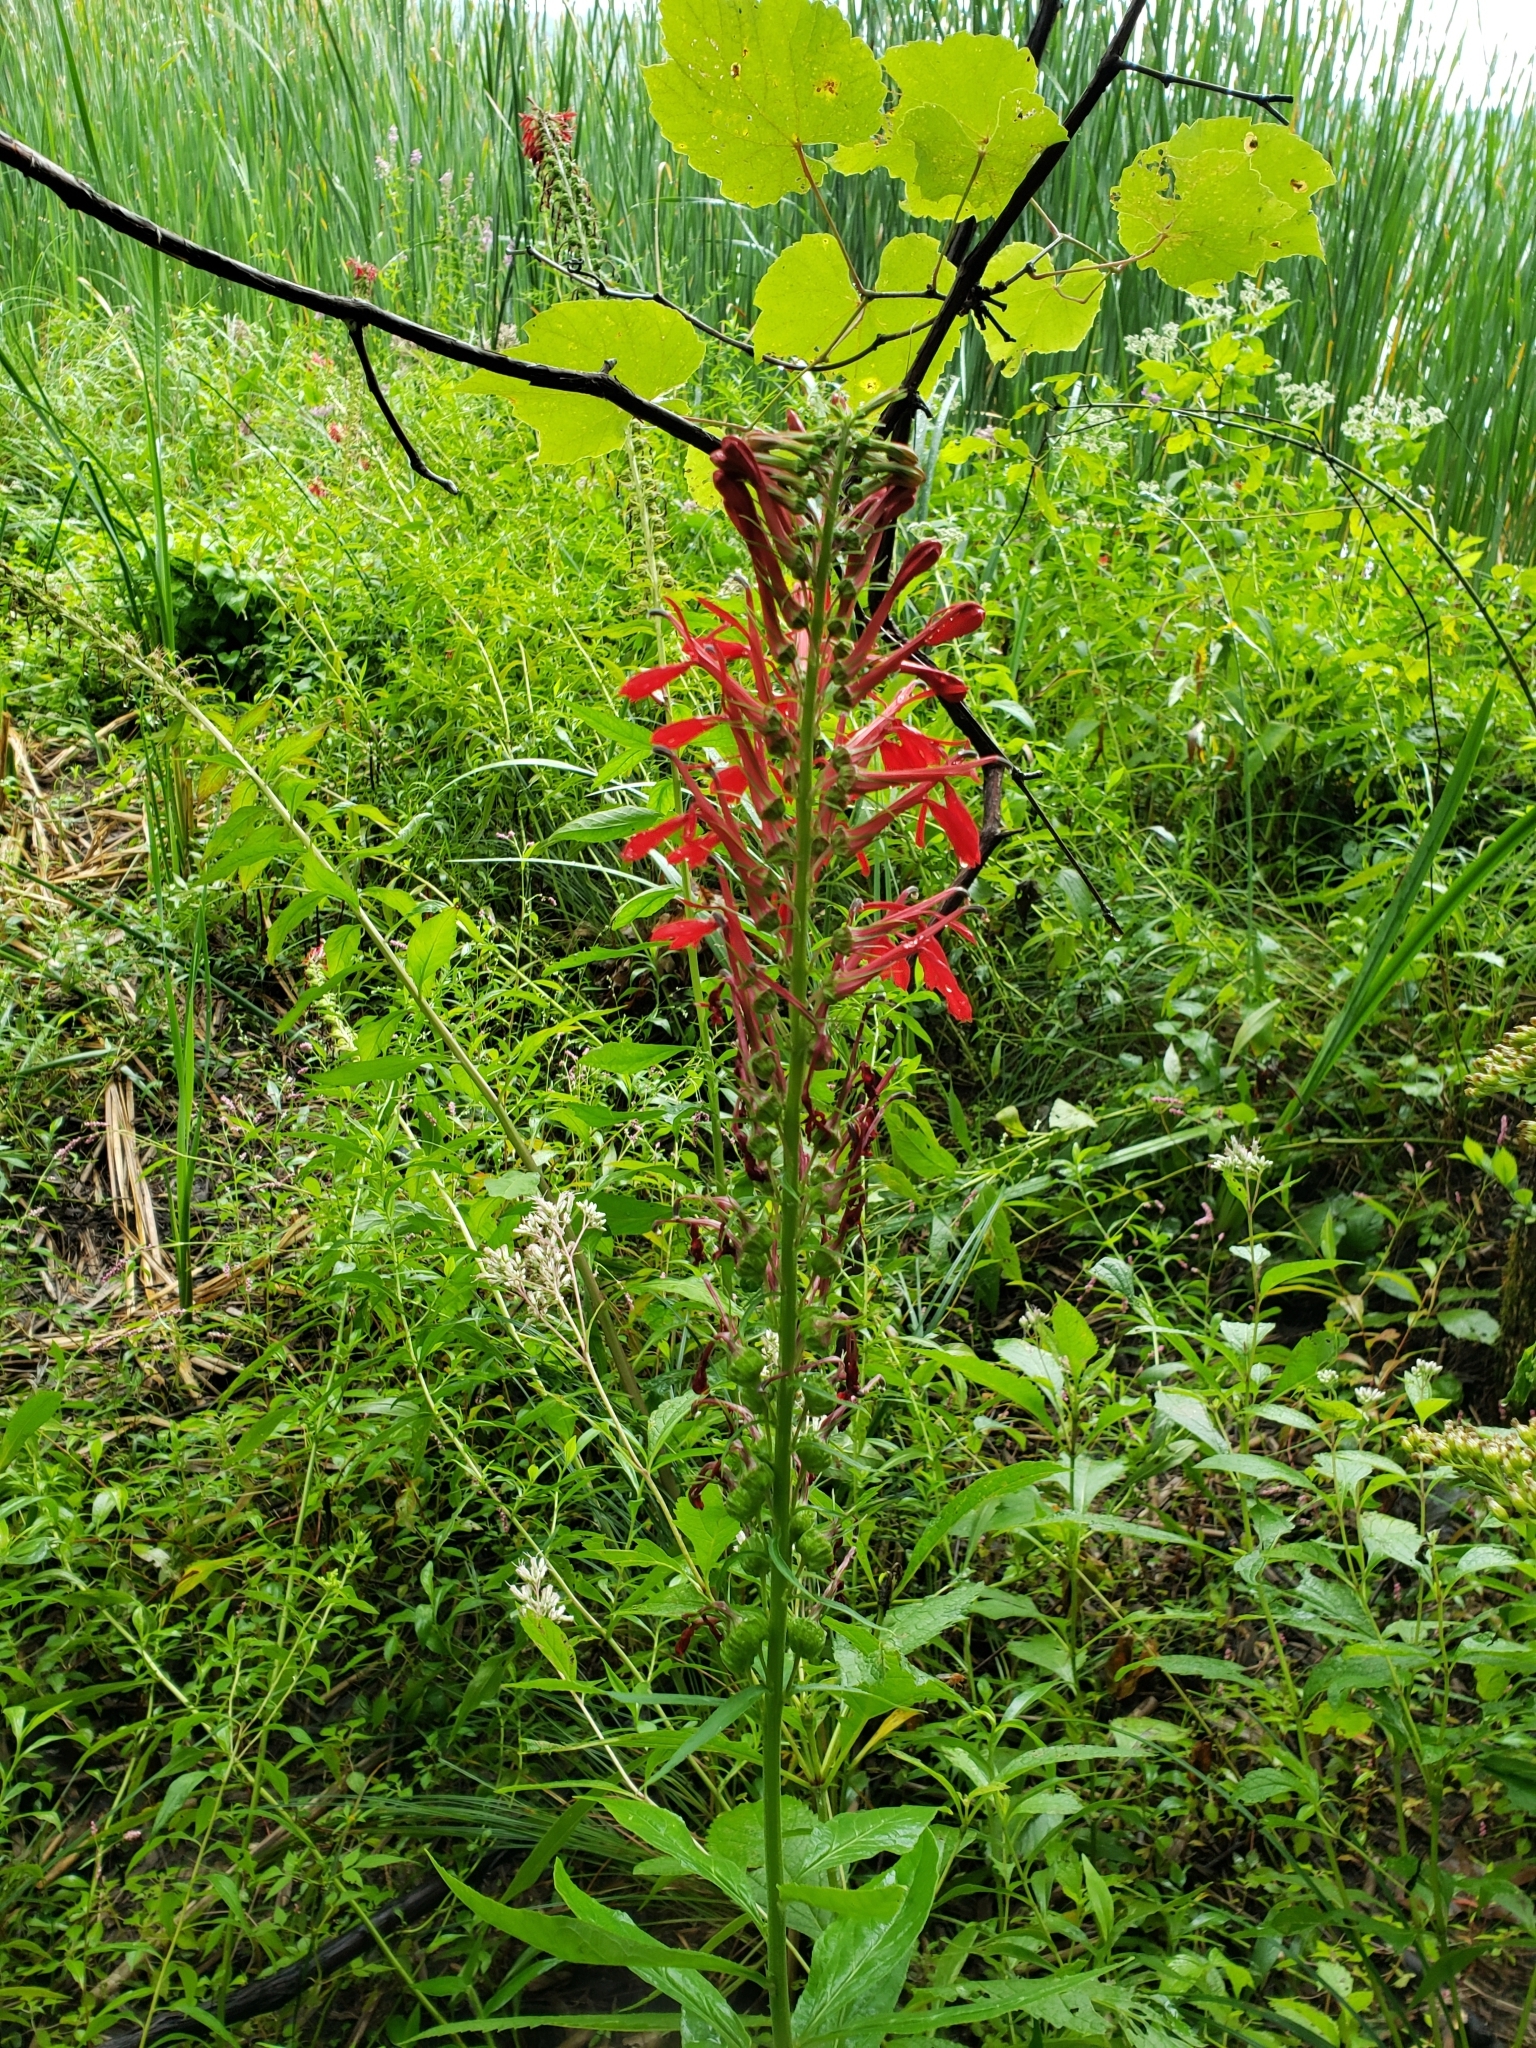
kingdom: Plantae
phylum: Tracheophyta
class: Magnoliopsida
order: Asterales
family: Campanulaceae
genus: Lobelia
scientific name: Lobelia cardinalis
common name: Cardinal flower
